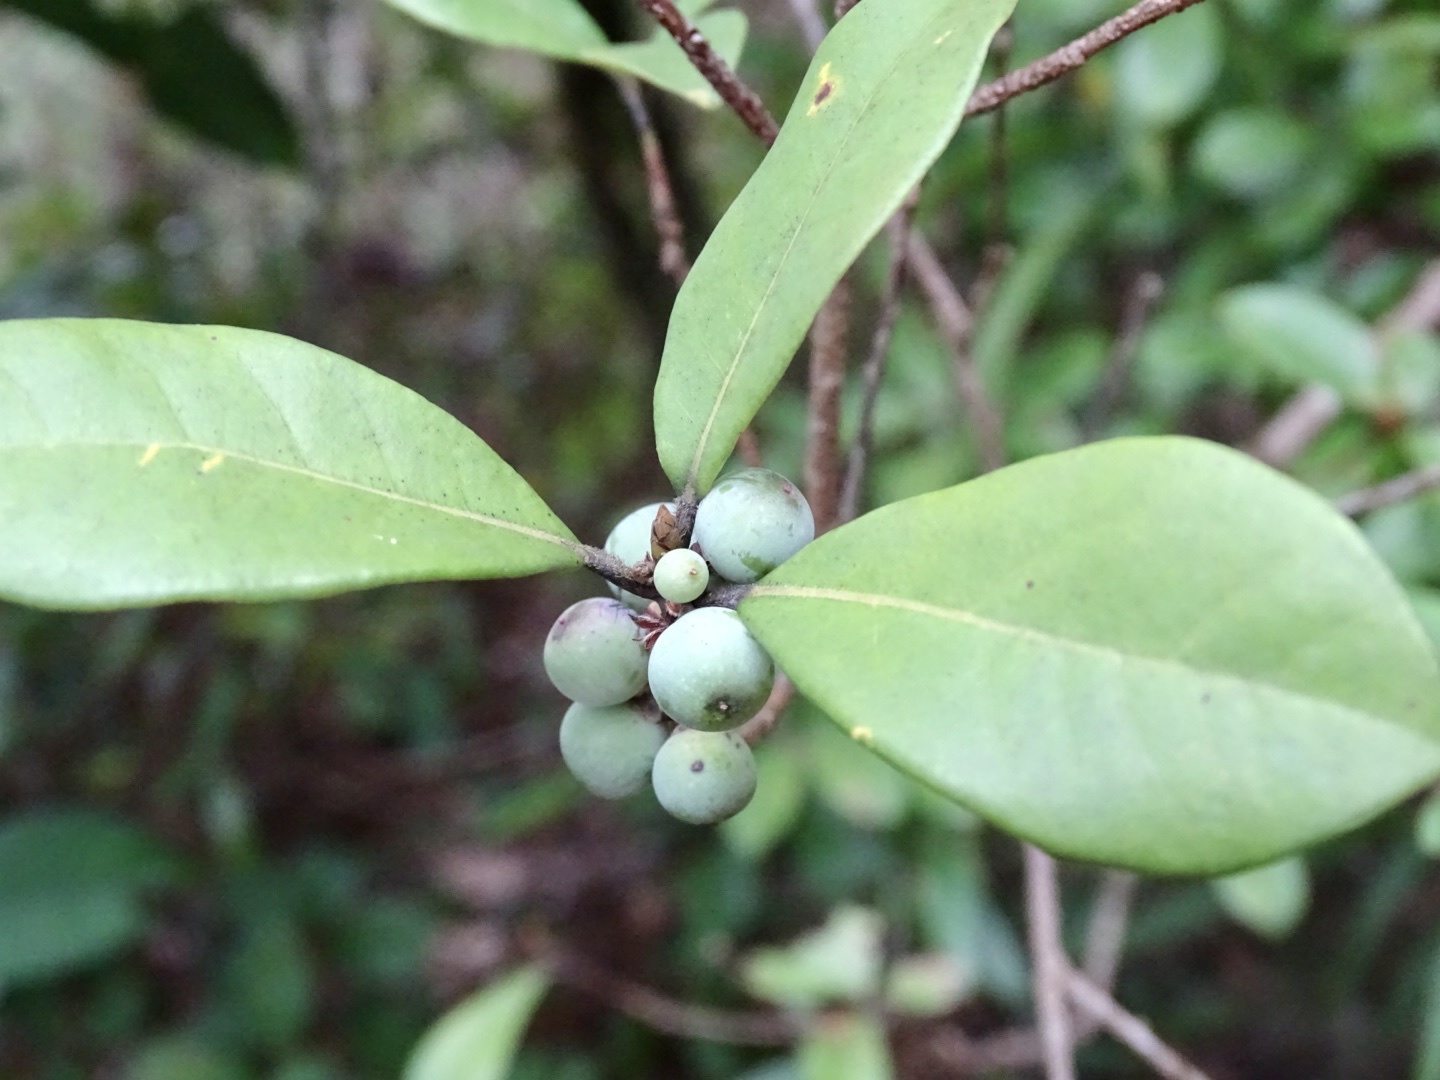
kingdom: Plantae
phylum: Tracheophyta
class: Magnoliopsida
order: Laurales
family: Lauraceae
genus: Litsea
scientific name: Litsea rotundifolia
